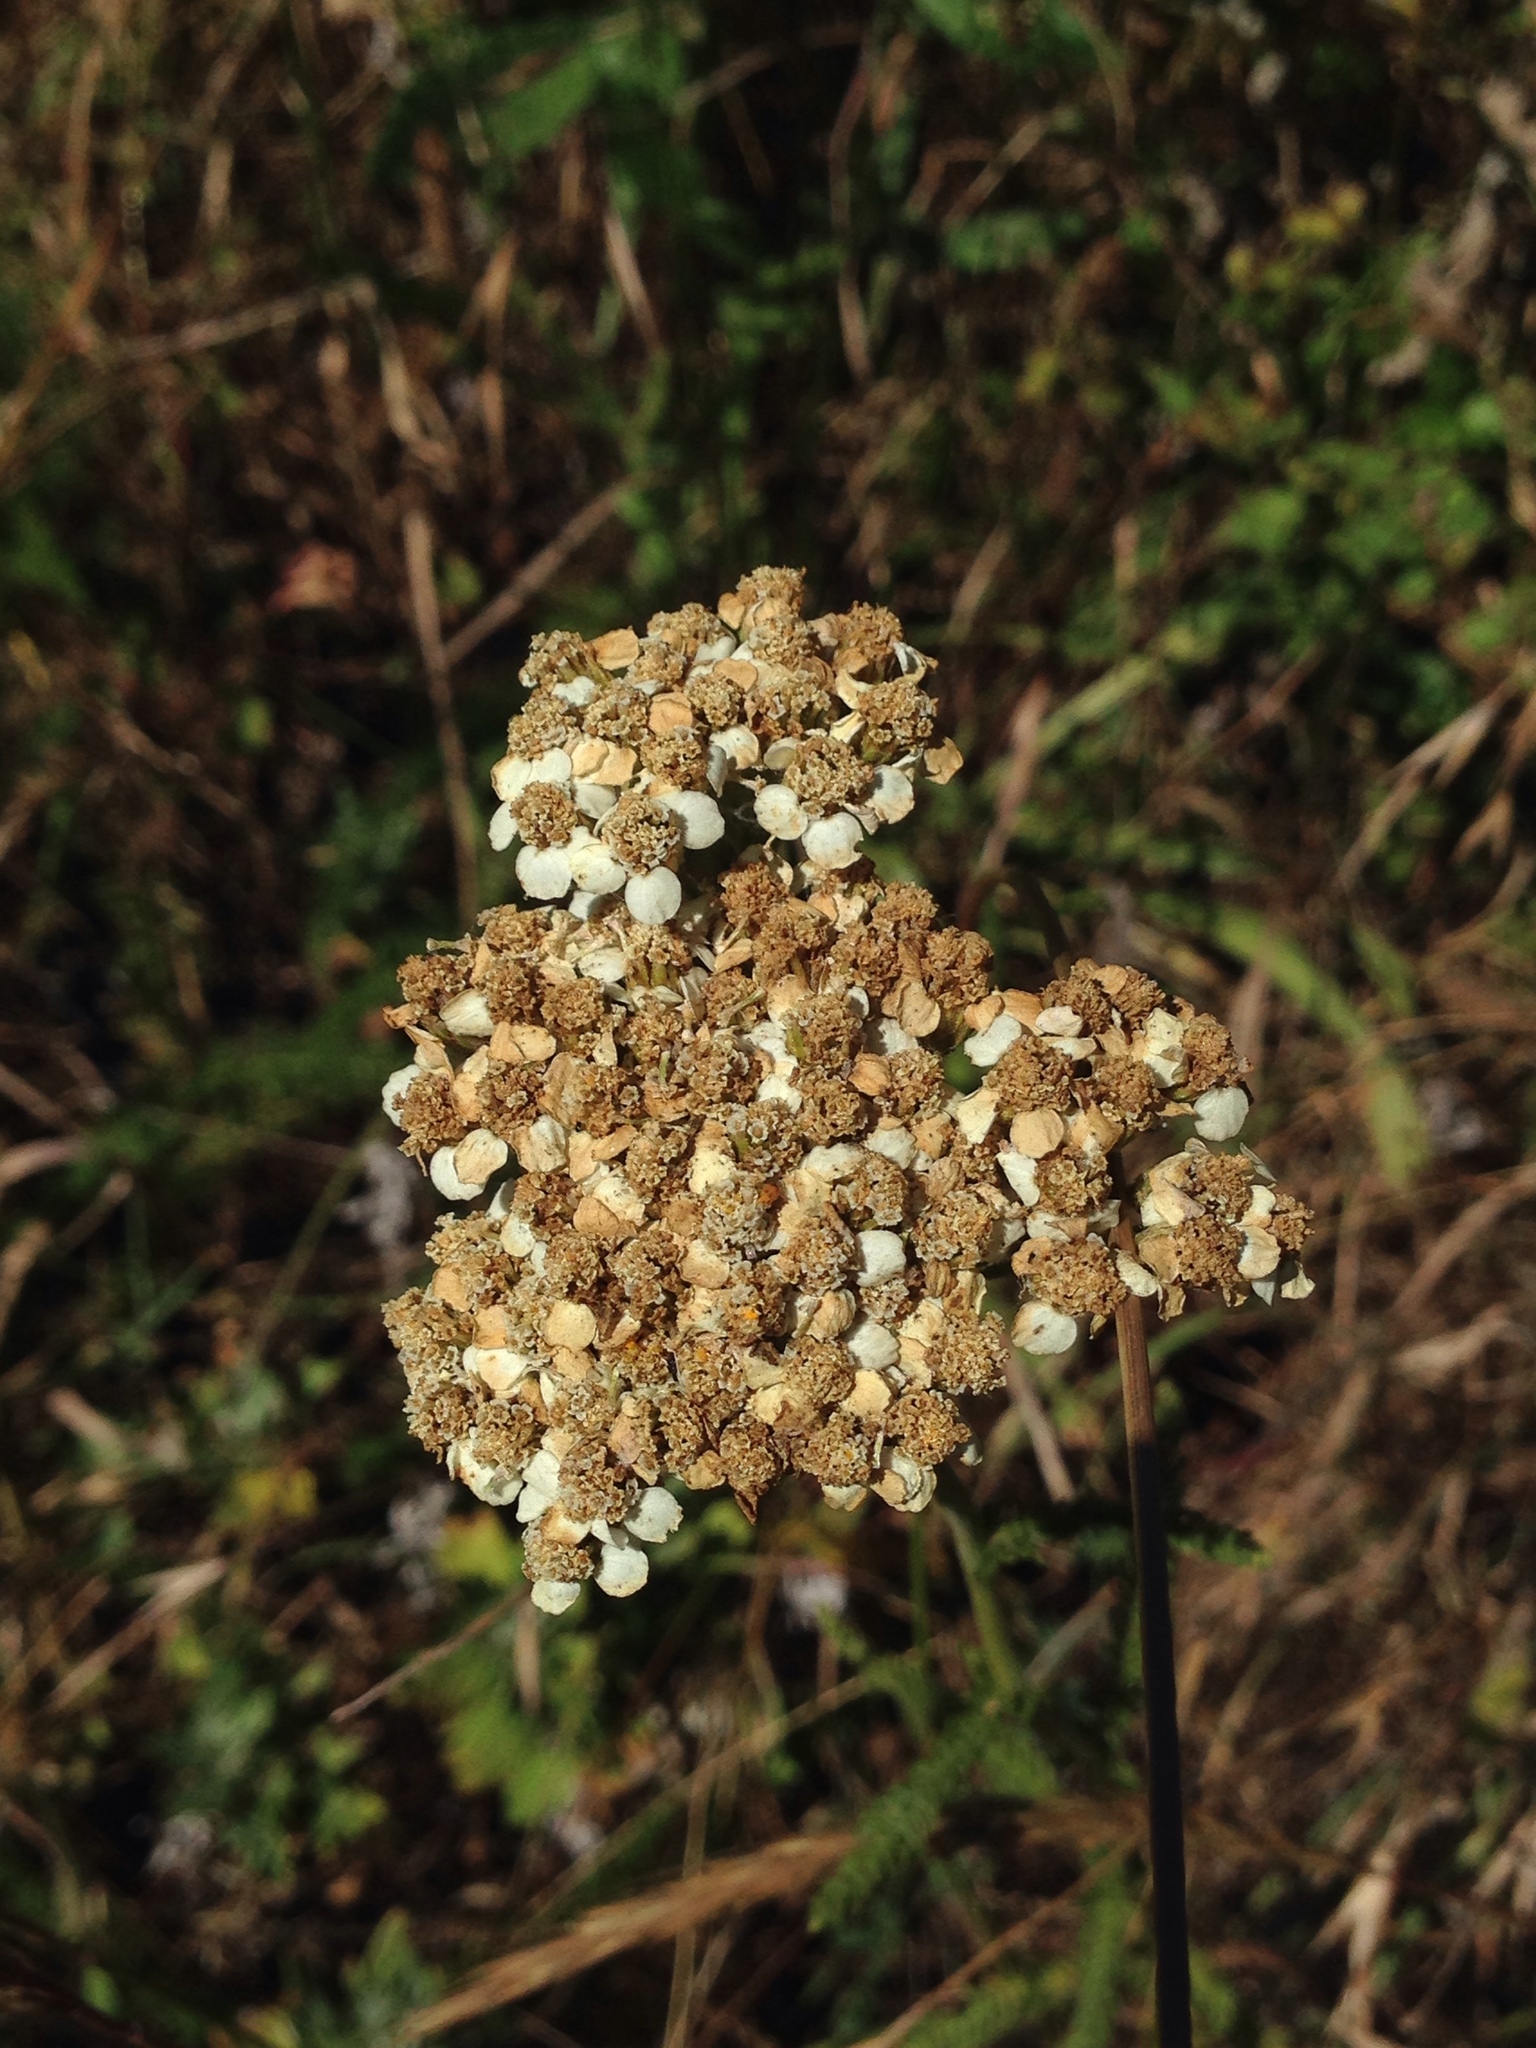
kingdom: Plantae
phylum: Tracheophyta
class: Magnoliopsida
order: Asterales
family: Asteraceae
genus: Achillea
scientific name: Achillea millefolium
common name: Yarrow
